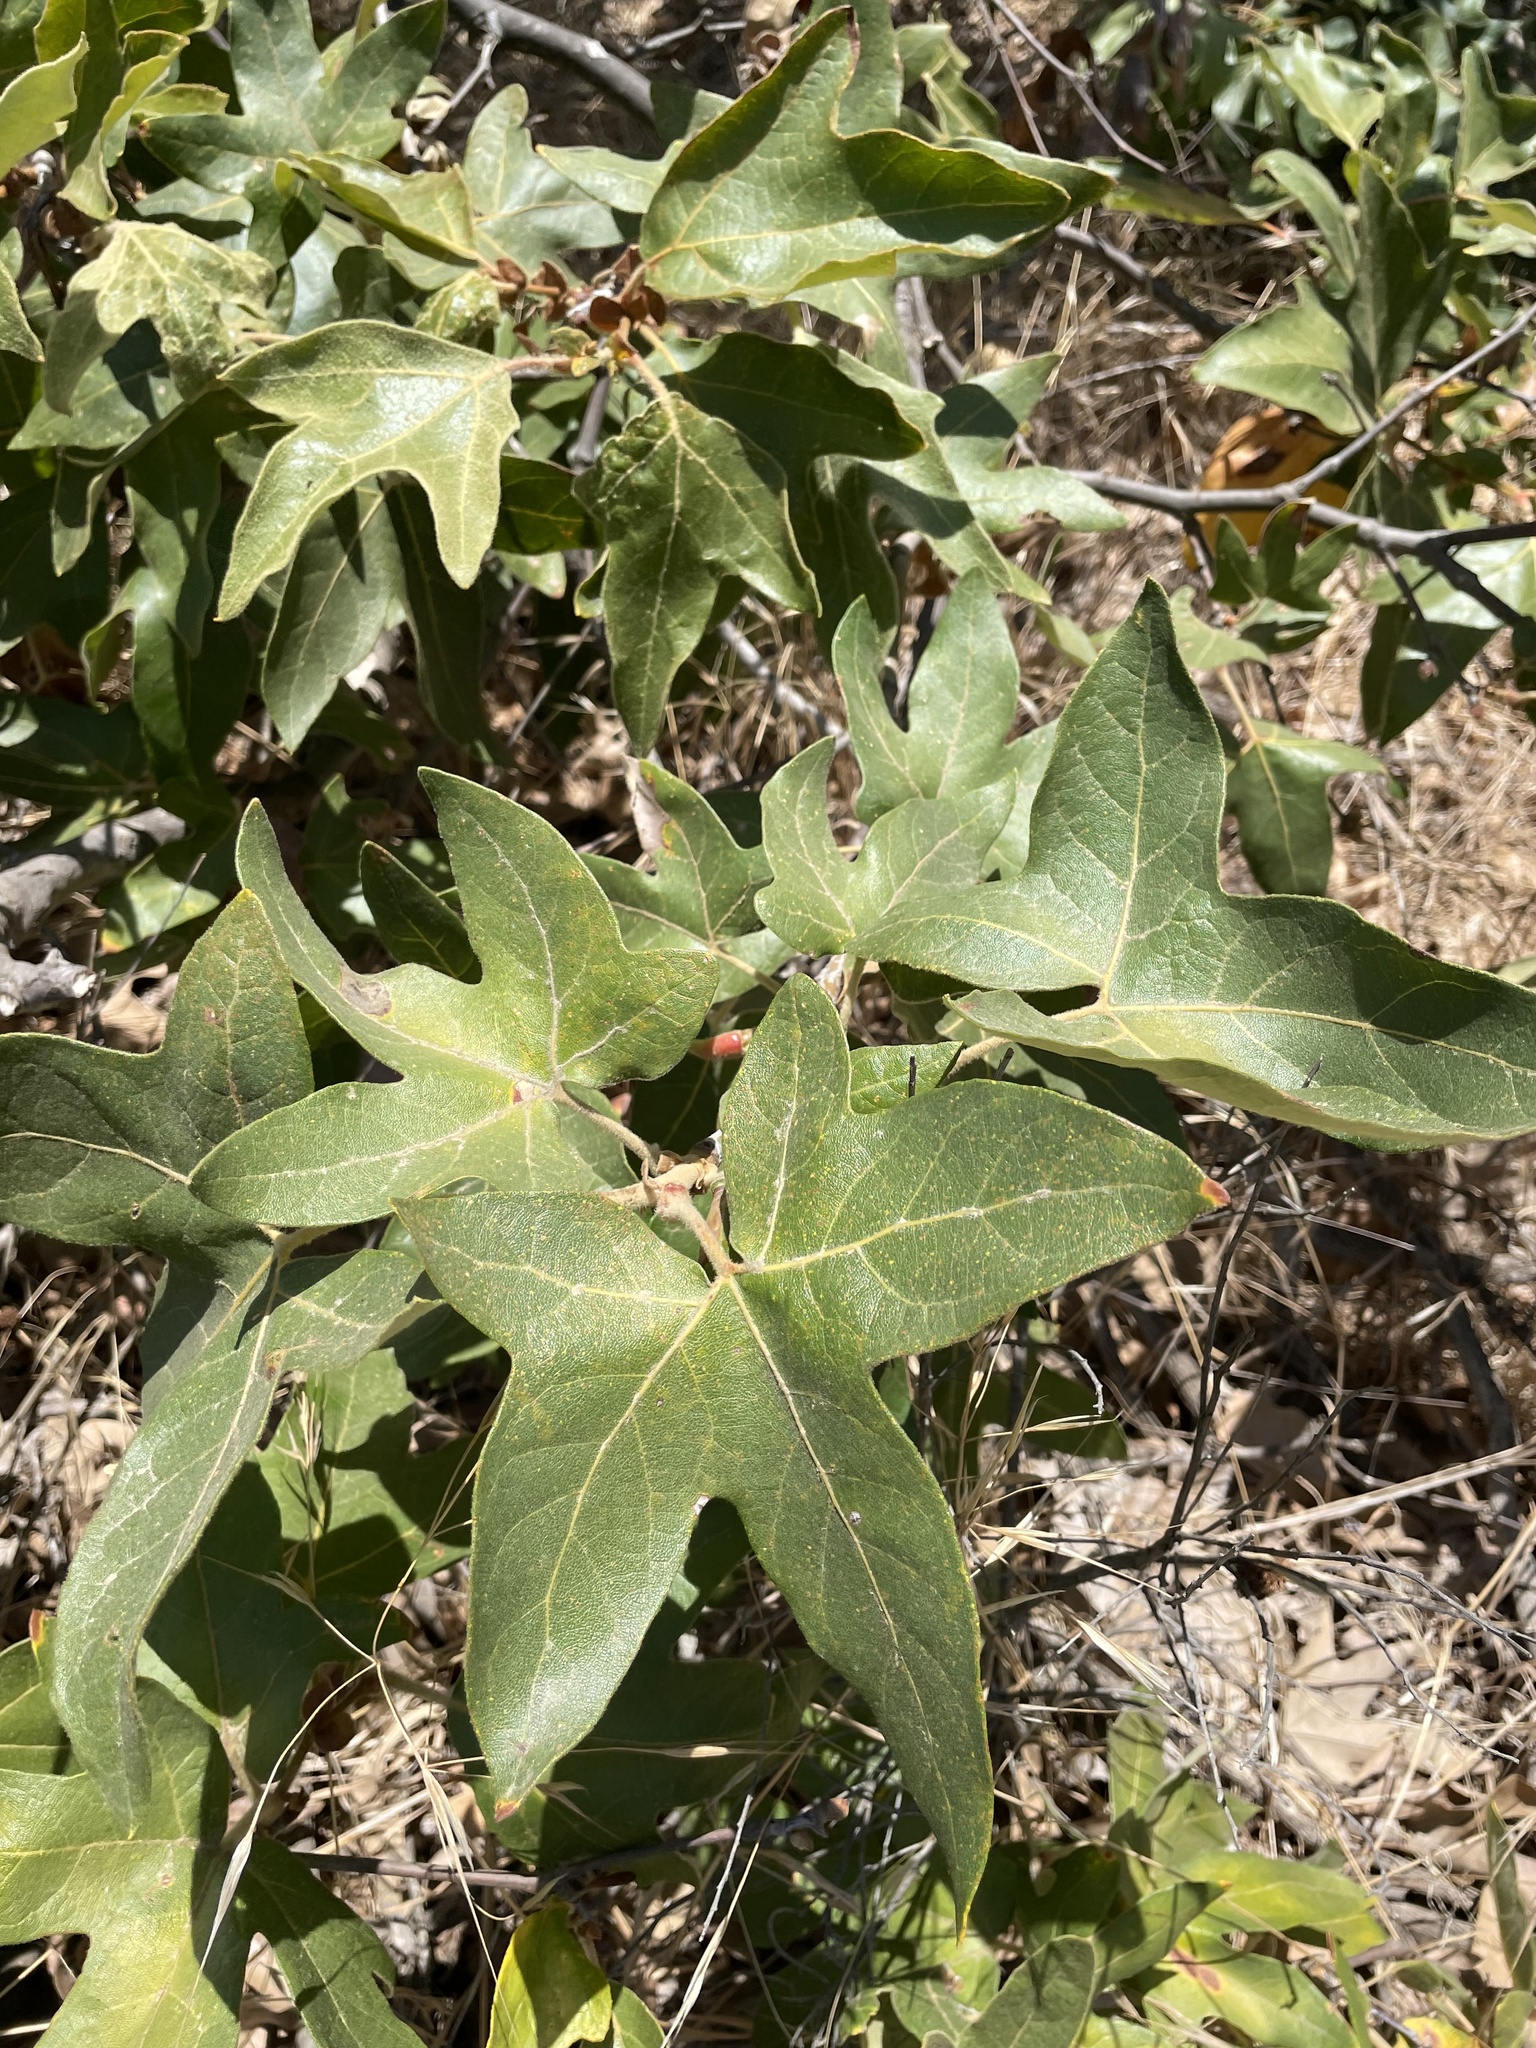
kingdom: Plantae
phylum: Tracheophyta
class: Magnoliopsida
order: Proteales
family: Platanaceae
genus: Platanus
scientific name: Platanus racemosa
